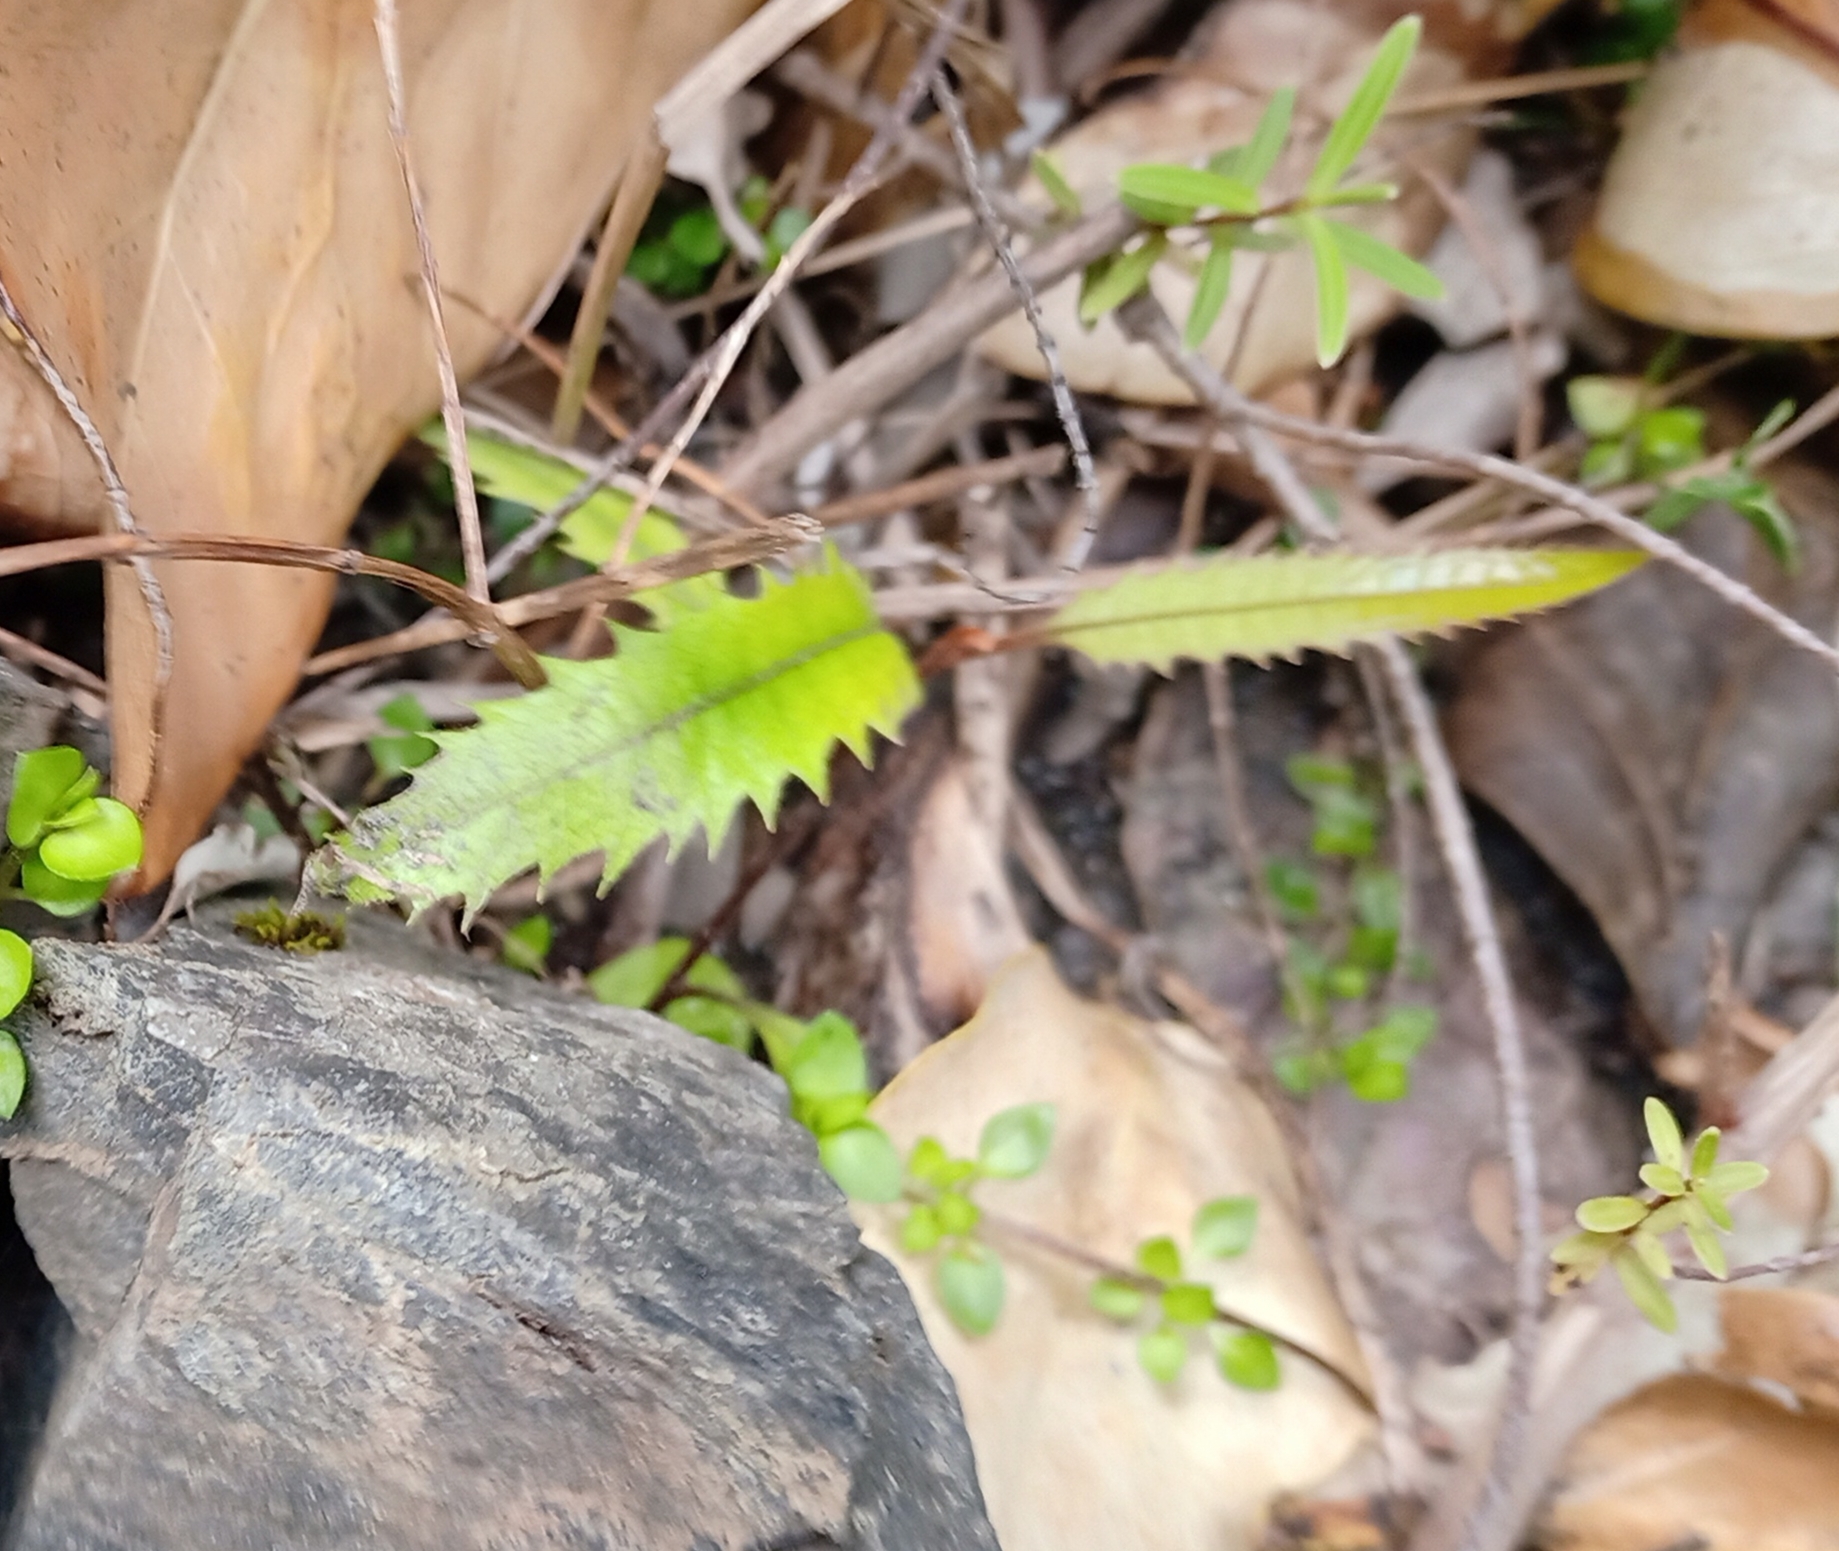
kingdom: Plantae
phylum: Tracheophyta
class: Magnoliopsida
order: Proteales
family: Proteaceae
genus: Knightia
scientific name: Knightia excelsa
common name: New zealand-honeysuckle
